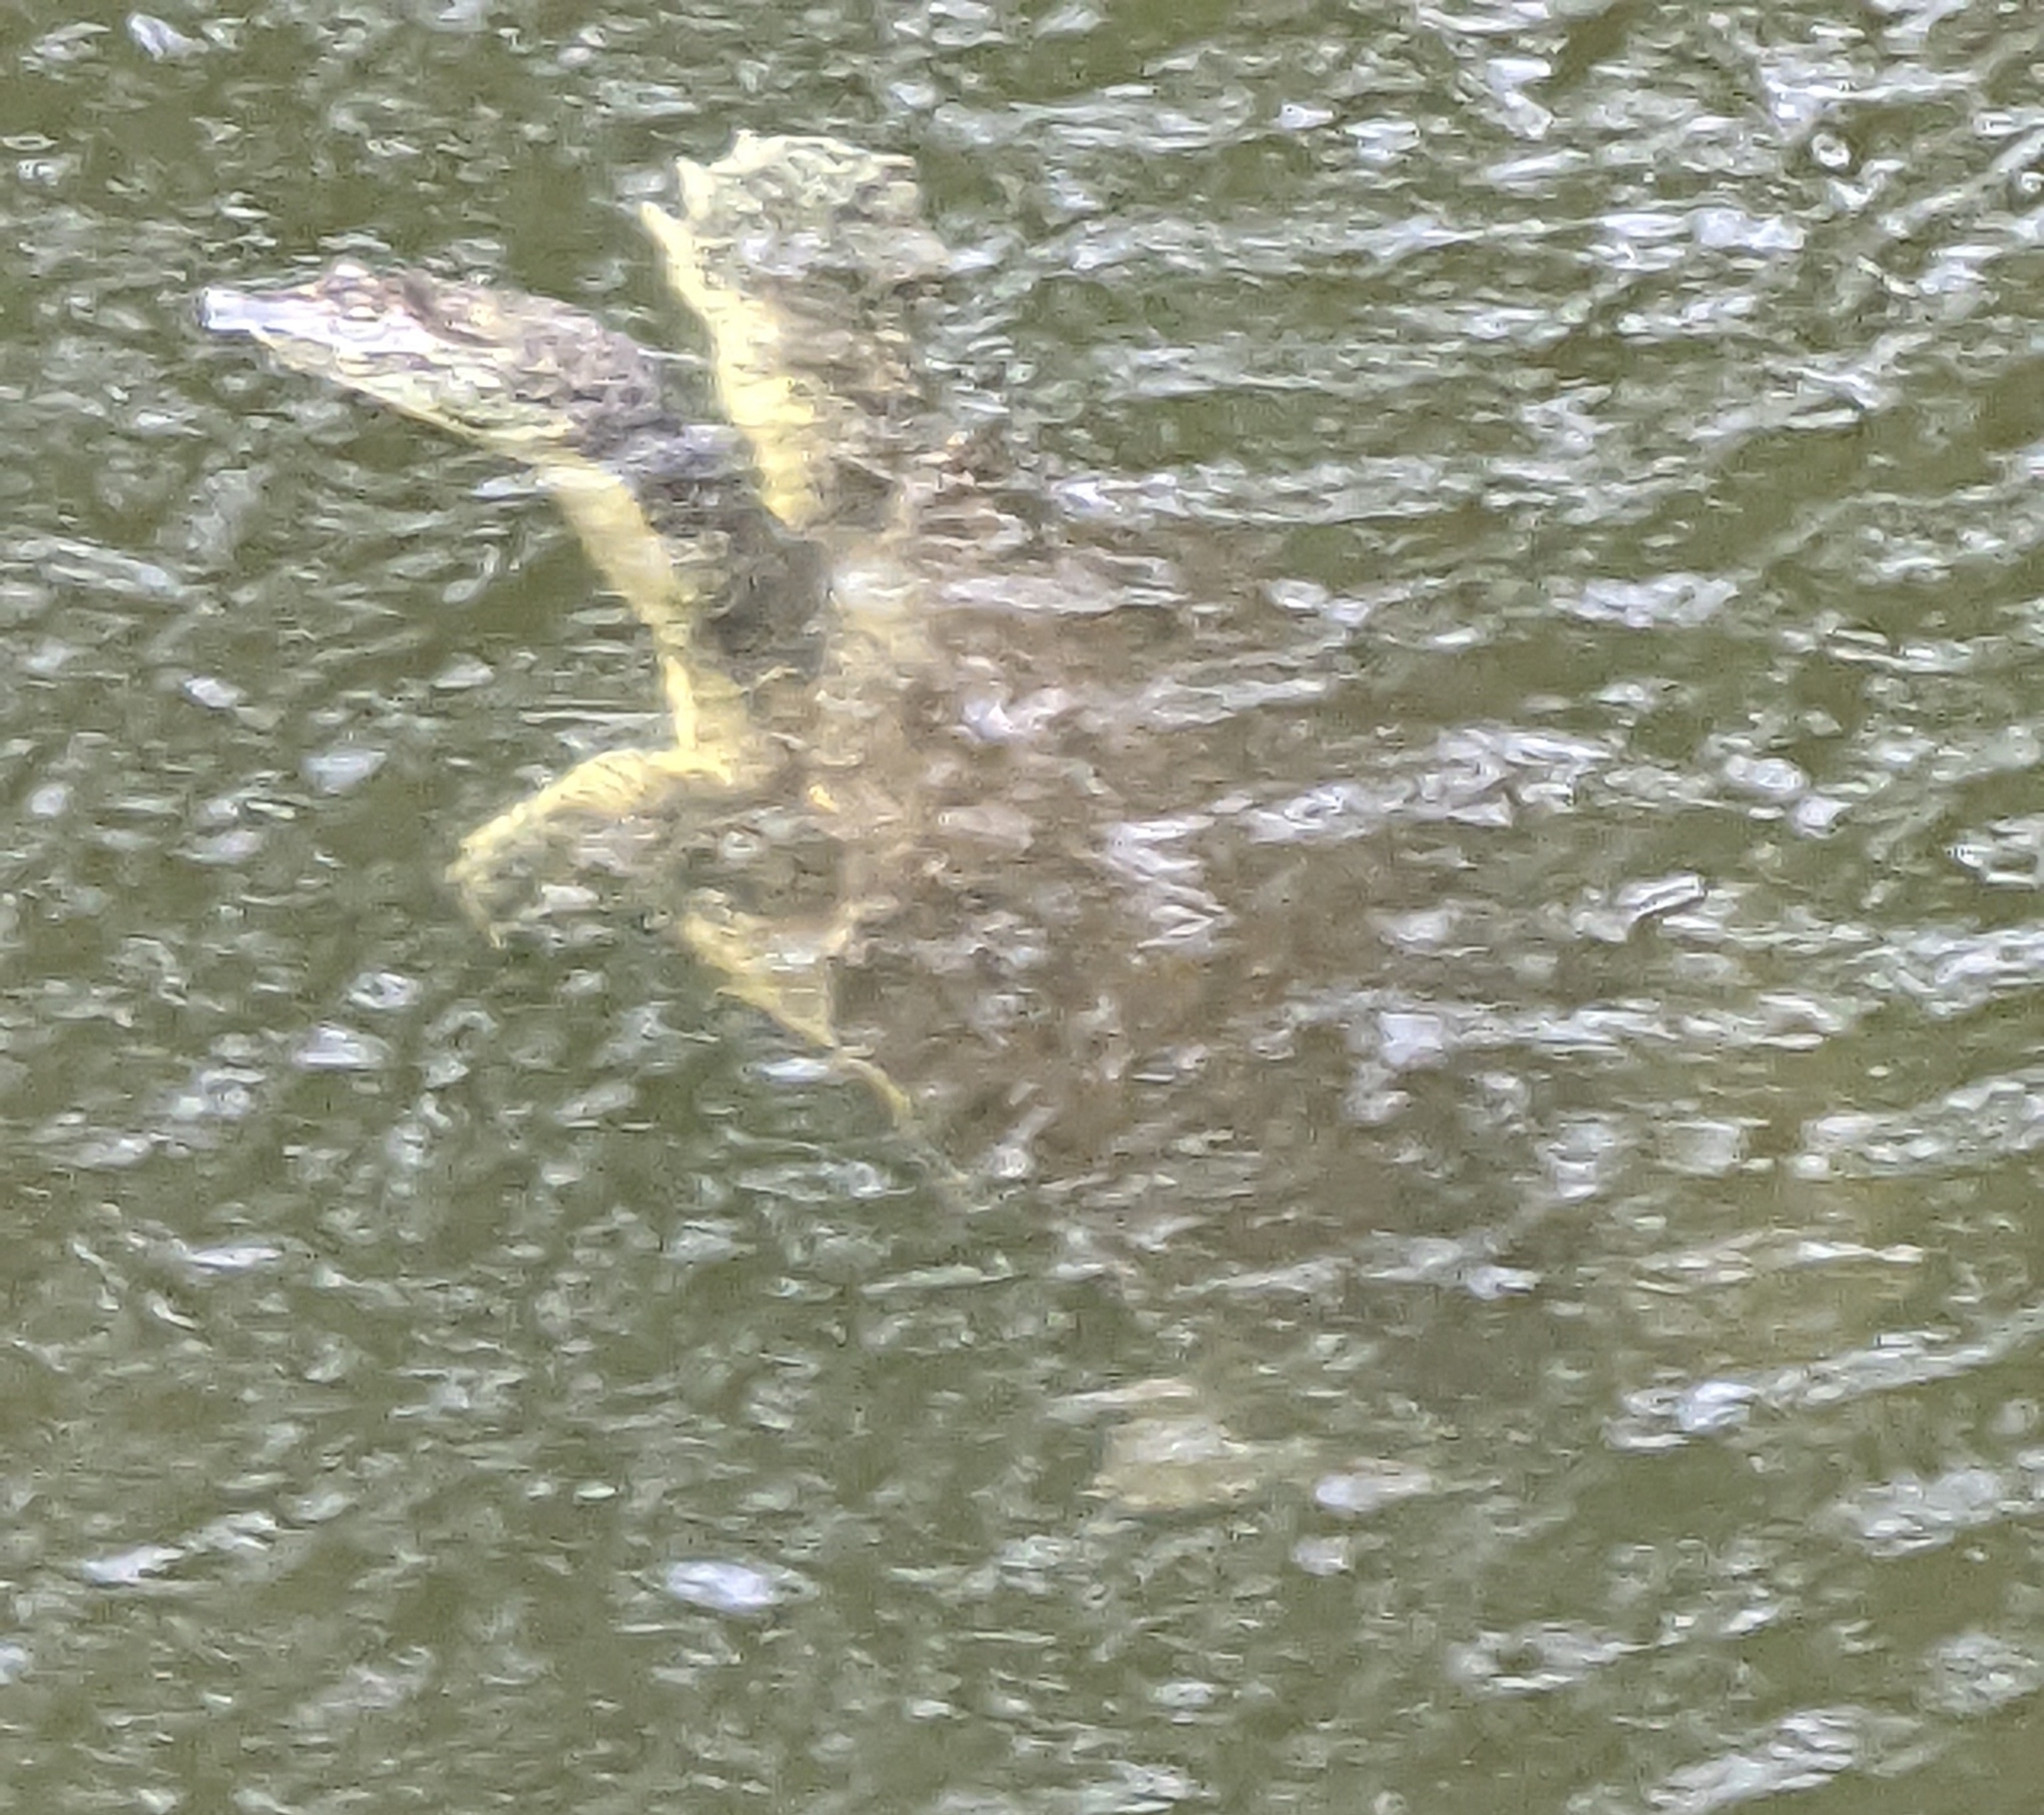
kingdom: Animalia
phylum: Chordata
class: Testudines
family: Trionychidae
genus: Apalone
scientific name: Apalone spinifera
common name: Spiny softshell turtle
